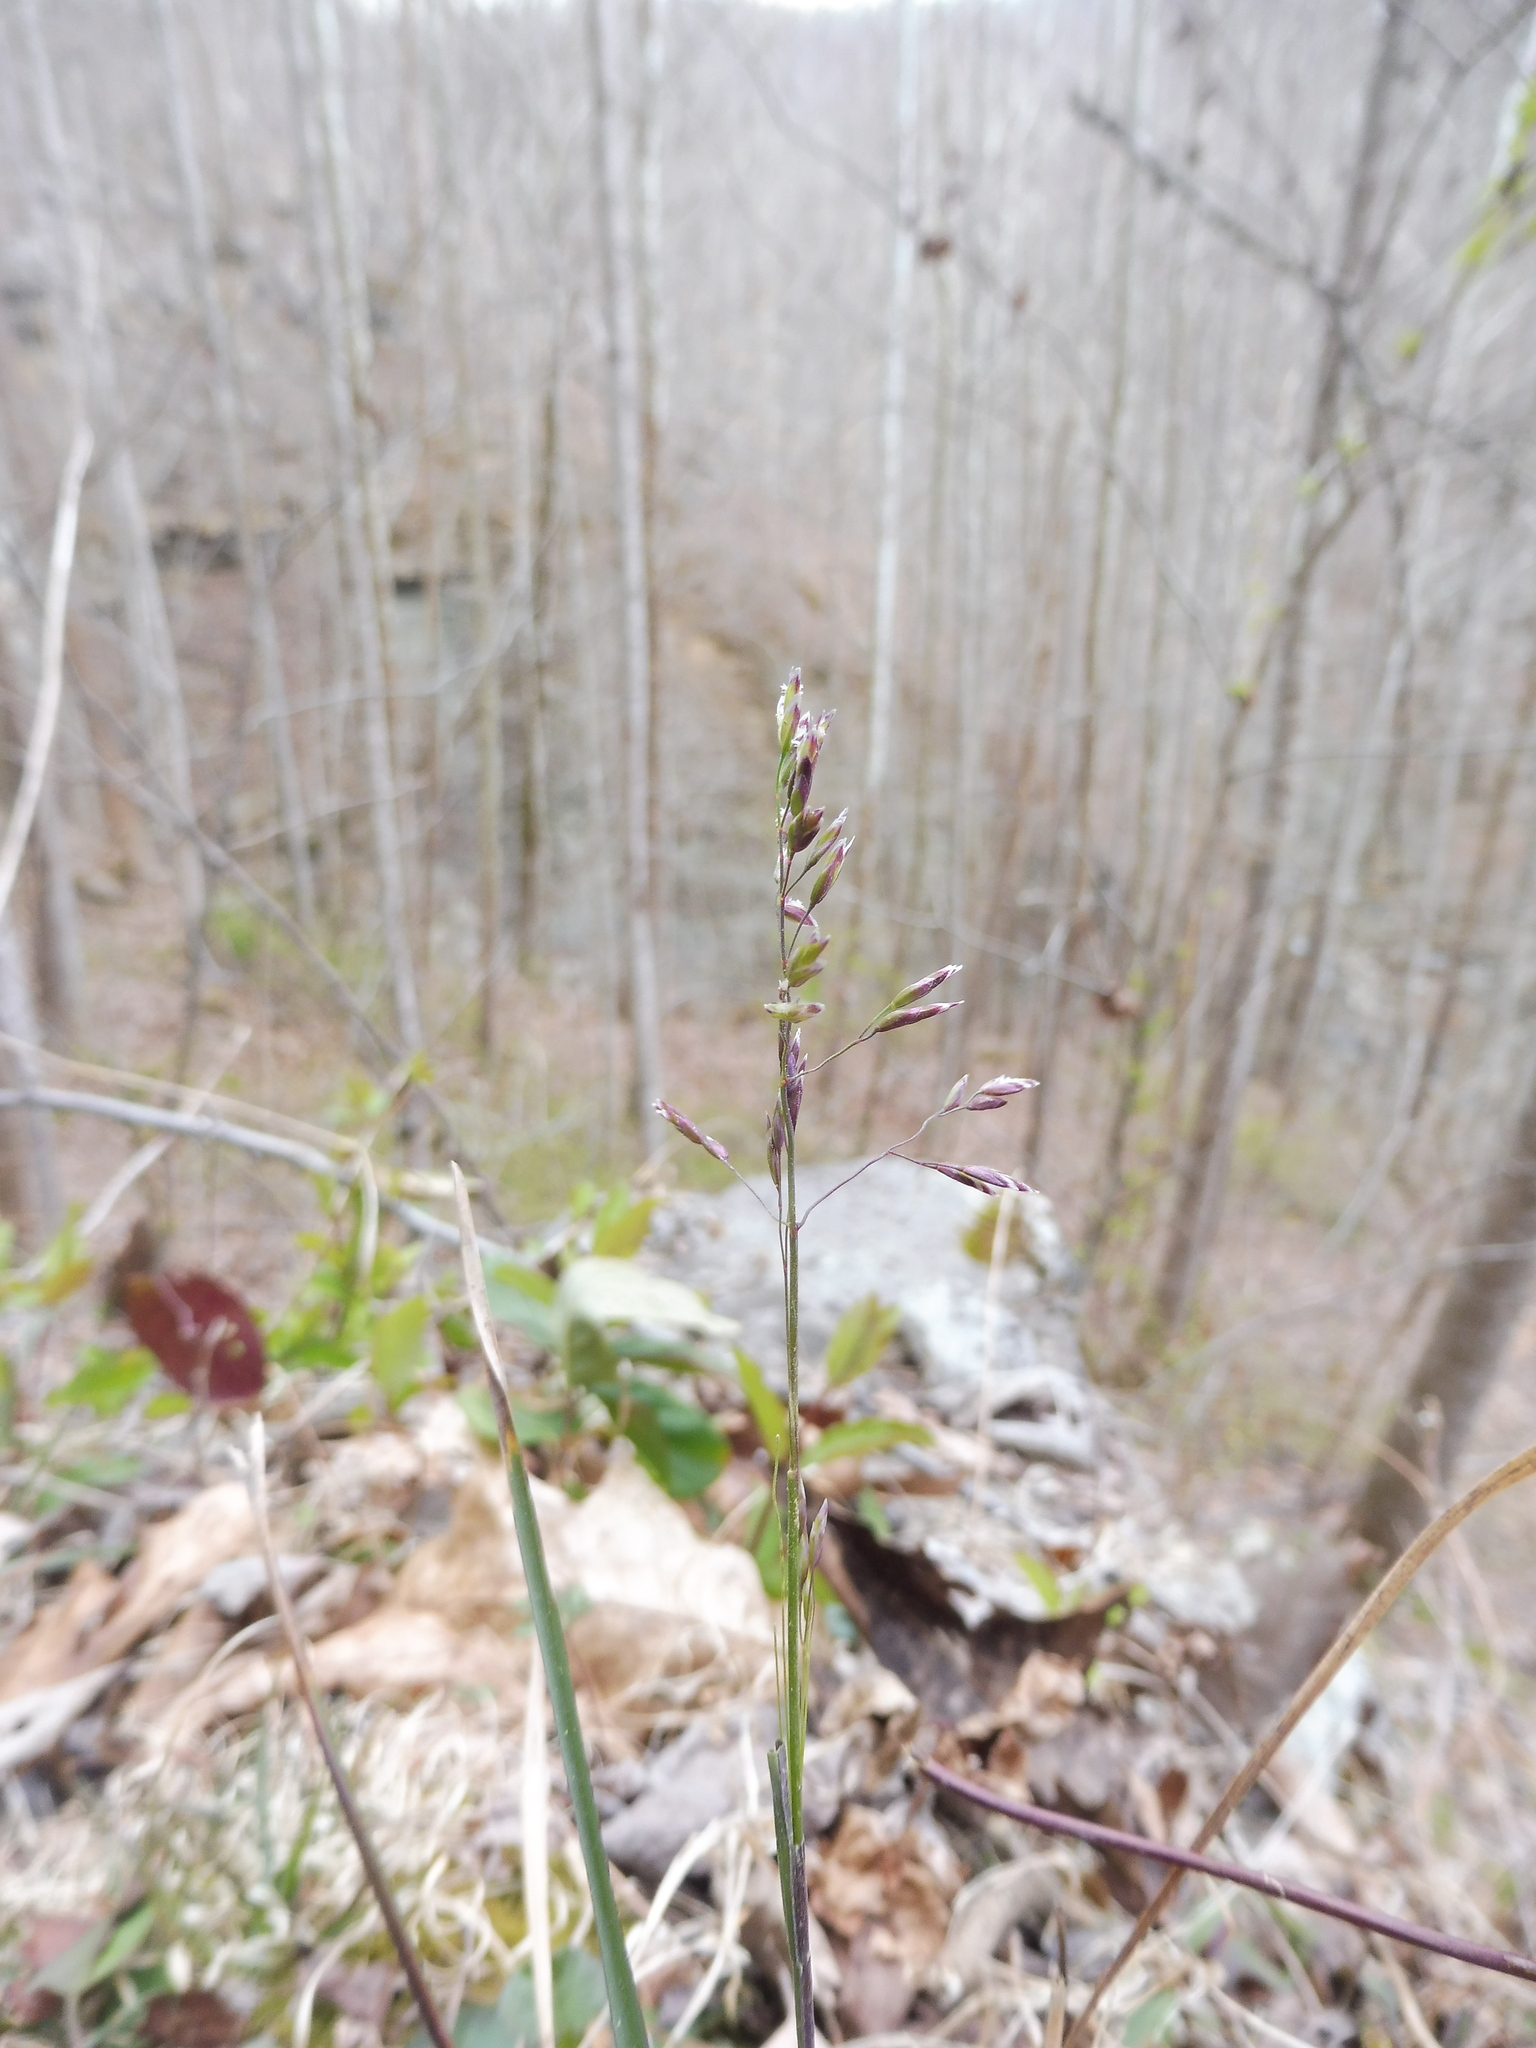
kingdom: Plantae
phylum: Tracheophyta
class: Liliopsida
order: Poales
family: Poaceae
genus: Poa
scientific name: Poa compressa
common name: Canada bluegrass
